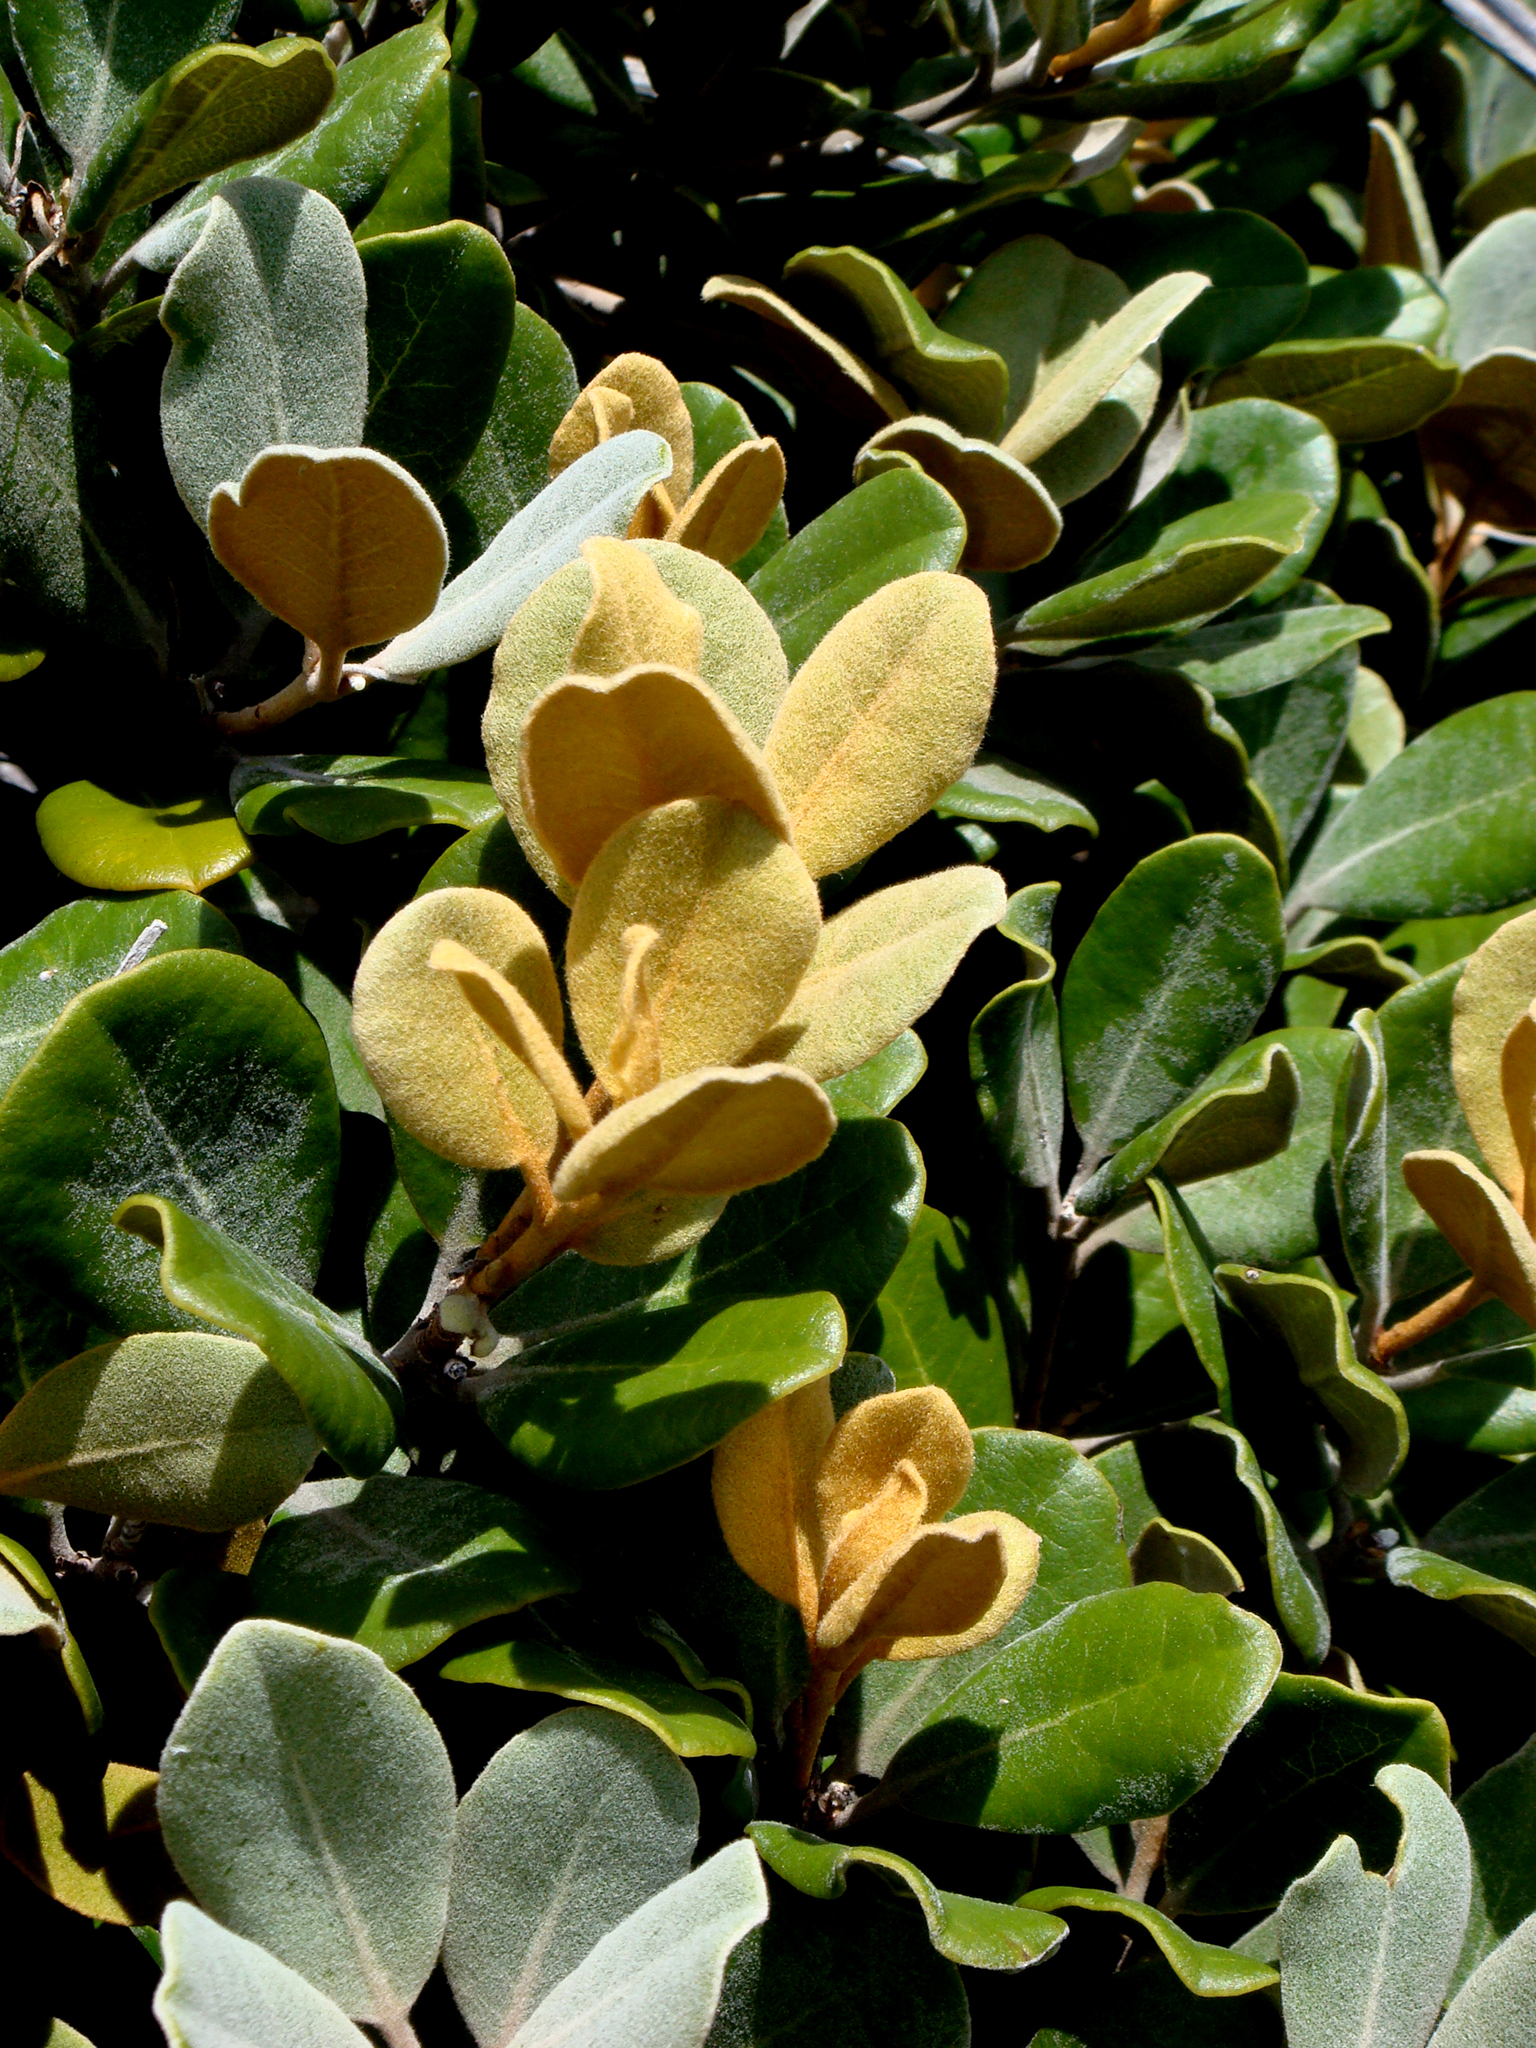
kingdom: Plantae
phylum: Tracheophyta
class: Magnoliopsida
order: Apiales
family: Pittosporaceae
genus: Pittosporum
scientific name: Pittosporum serpentinum
